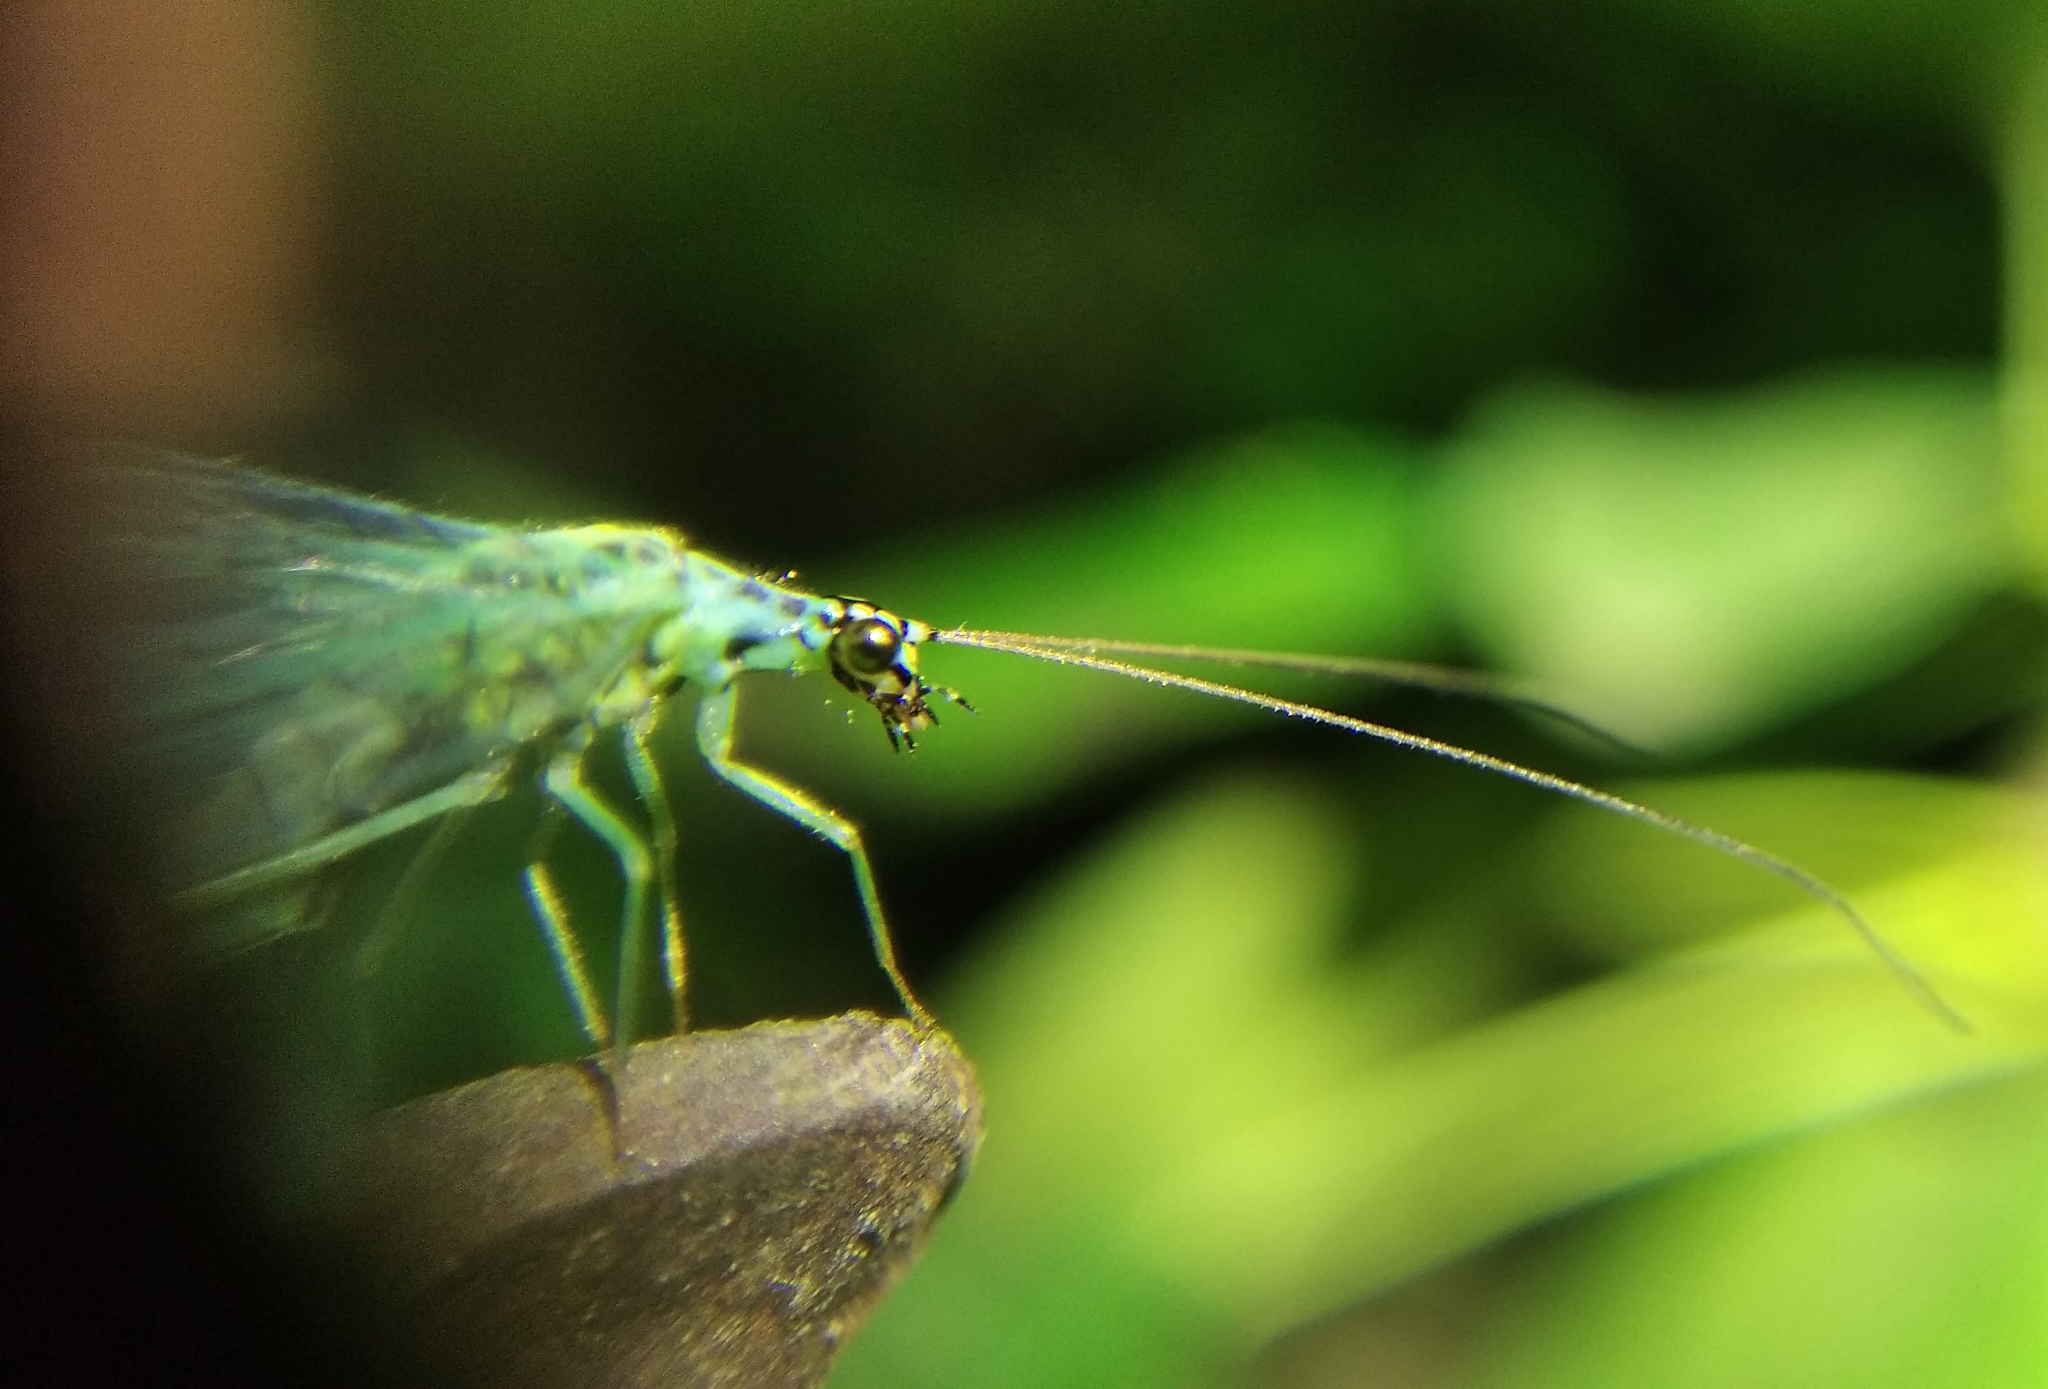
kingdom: Animalia
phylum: Arthropoda
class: Insecta
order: Neuroptera
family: Chrysopidae
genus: Chrysopa
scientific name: Chrysopa perla
